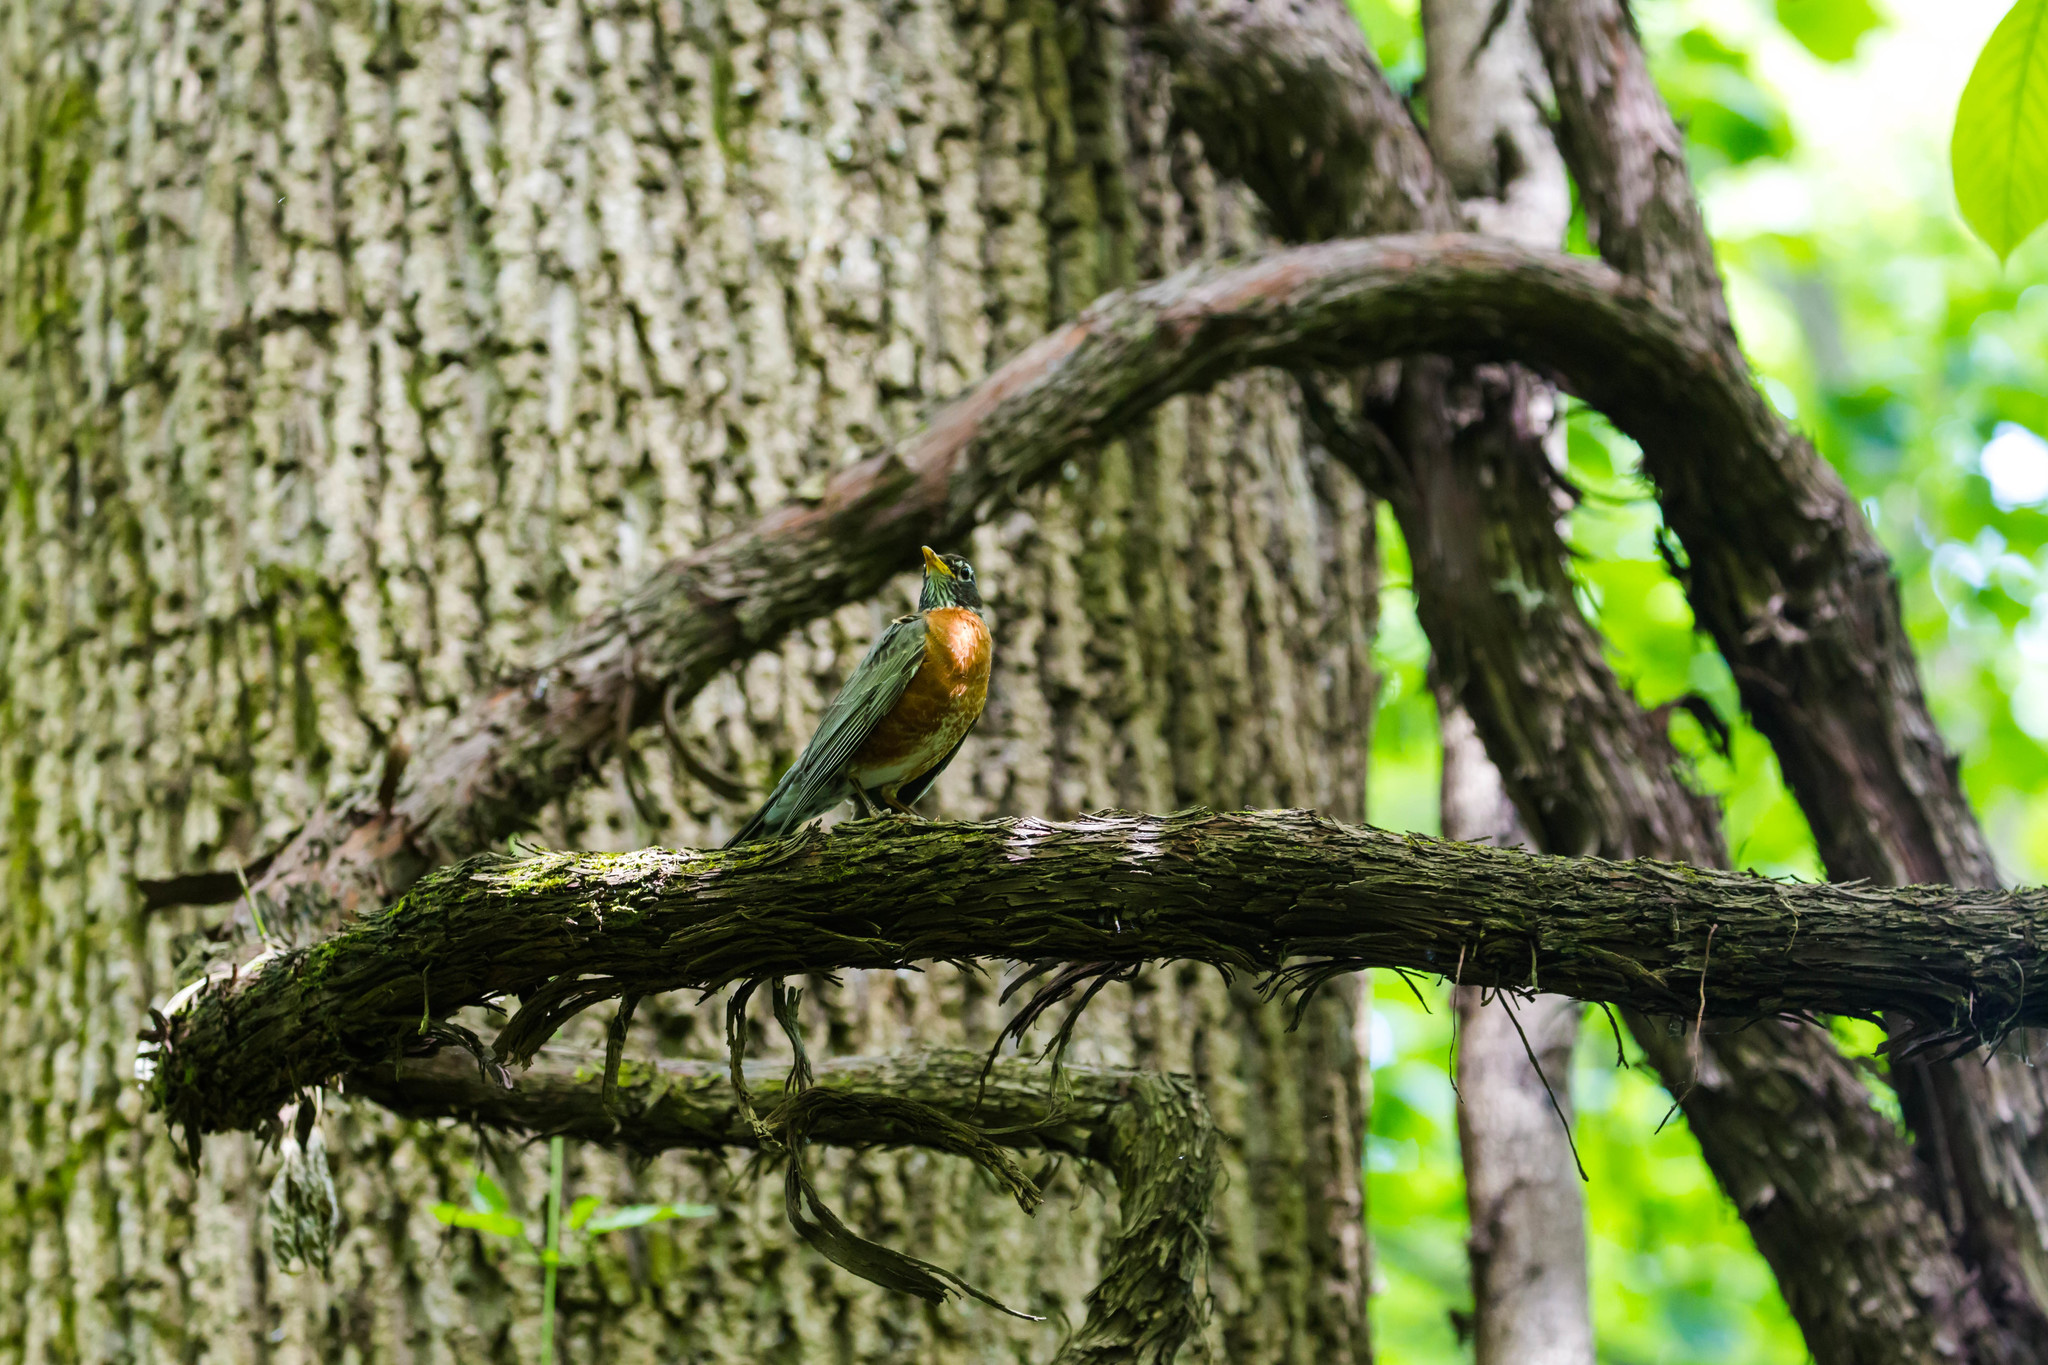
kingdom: Animalia
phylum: Chordata
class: Aves
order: Passeriformes
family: Turdidae
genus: Turdus
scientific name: Turdus migratorius
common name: American robin
